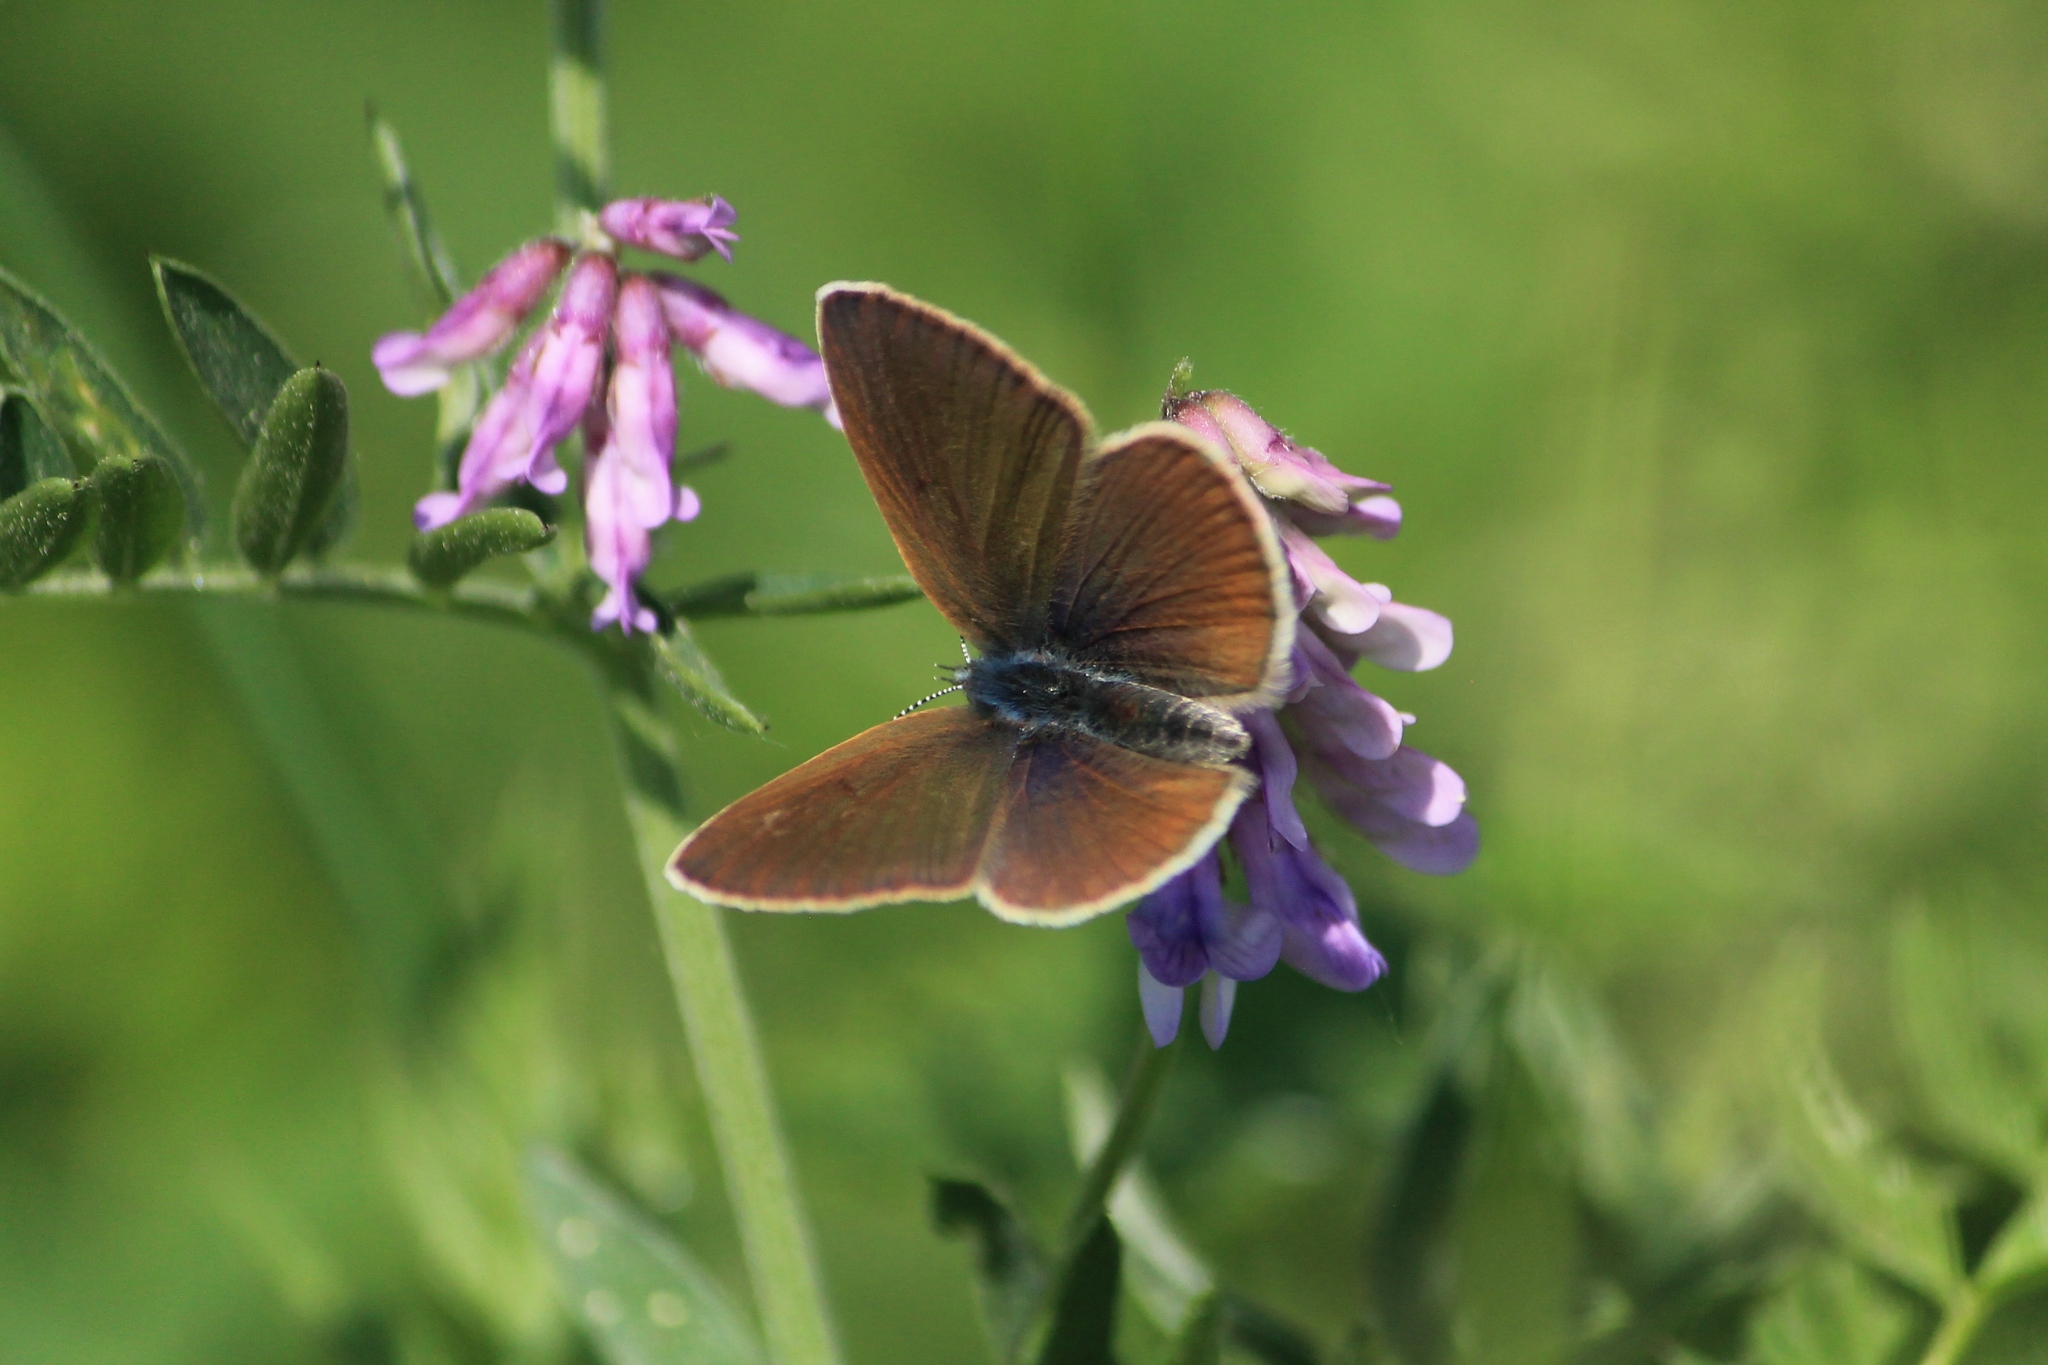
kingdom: Animalia
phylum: Arthropoda
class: Insecta
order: Lepidoptera
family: Lycaenidae
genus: Cyaniris
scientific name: Cyaniris semiargus
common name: Mazarine blue
